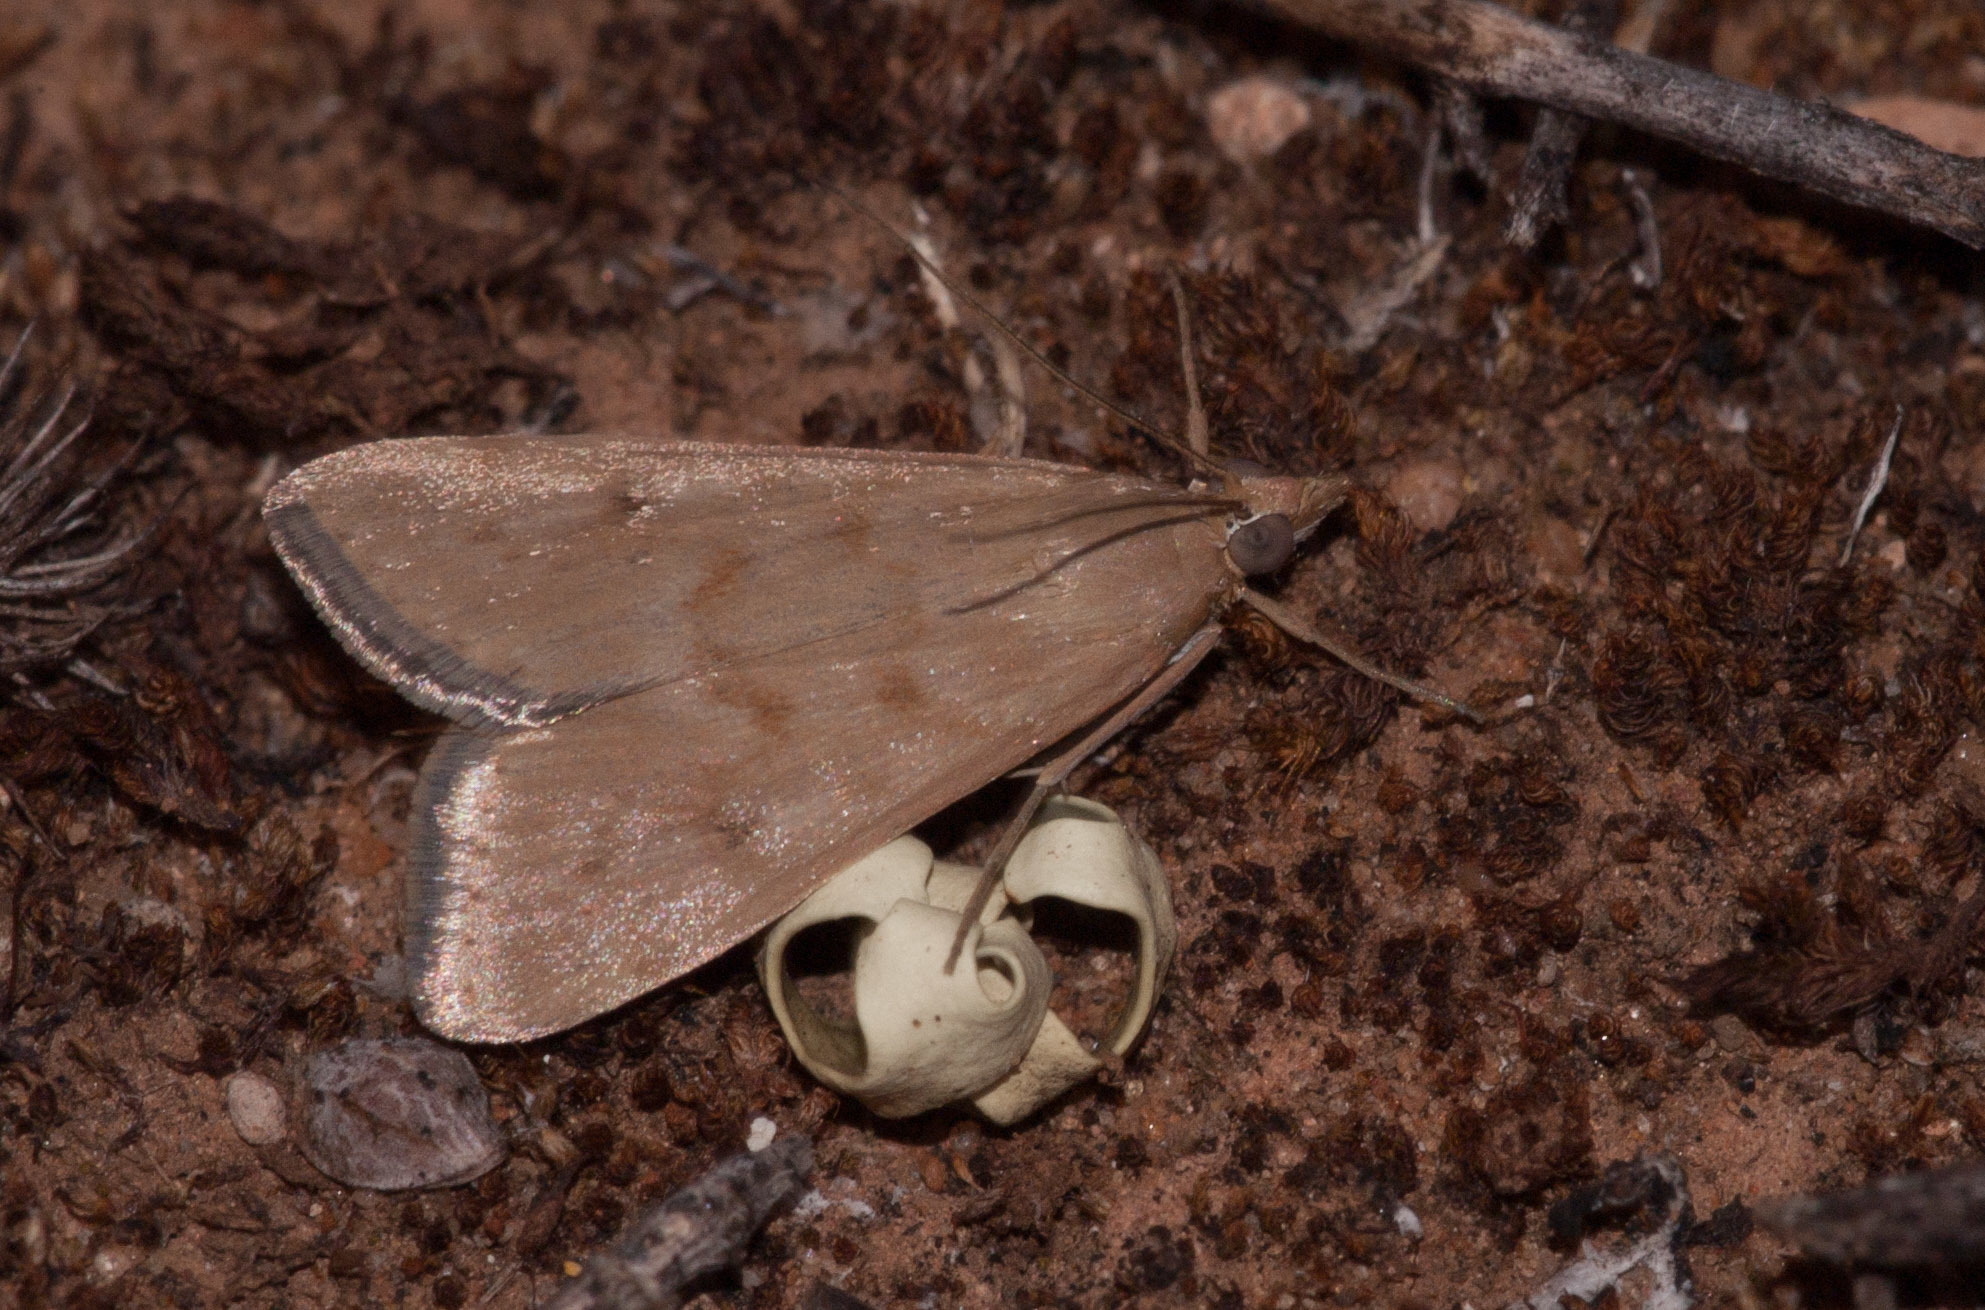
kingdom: Animalia
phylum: Arthropoda
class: Insecta
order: Lepidoptera
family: Crambidae
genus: Achyra
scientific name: Achyra affinitalis
